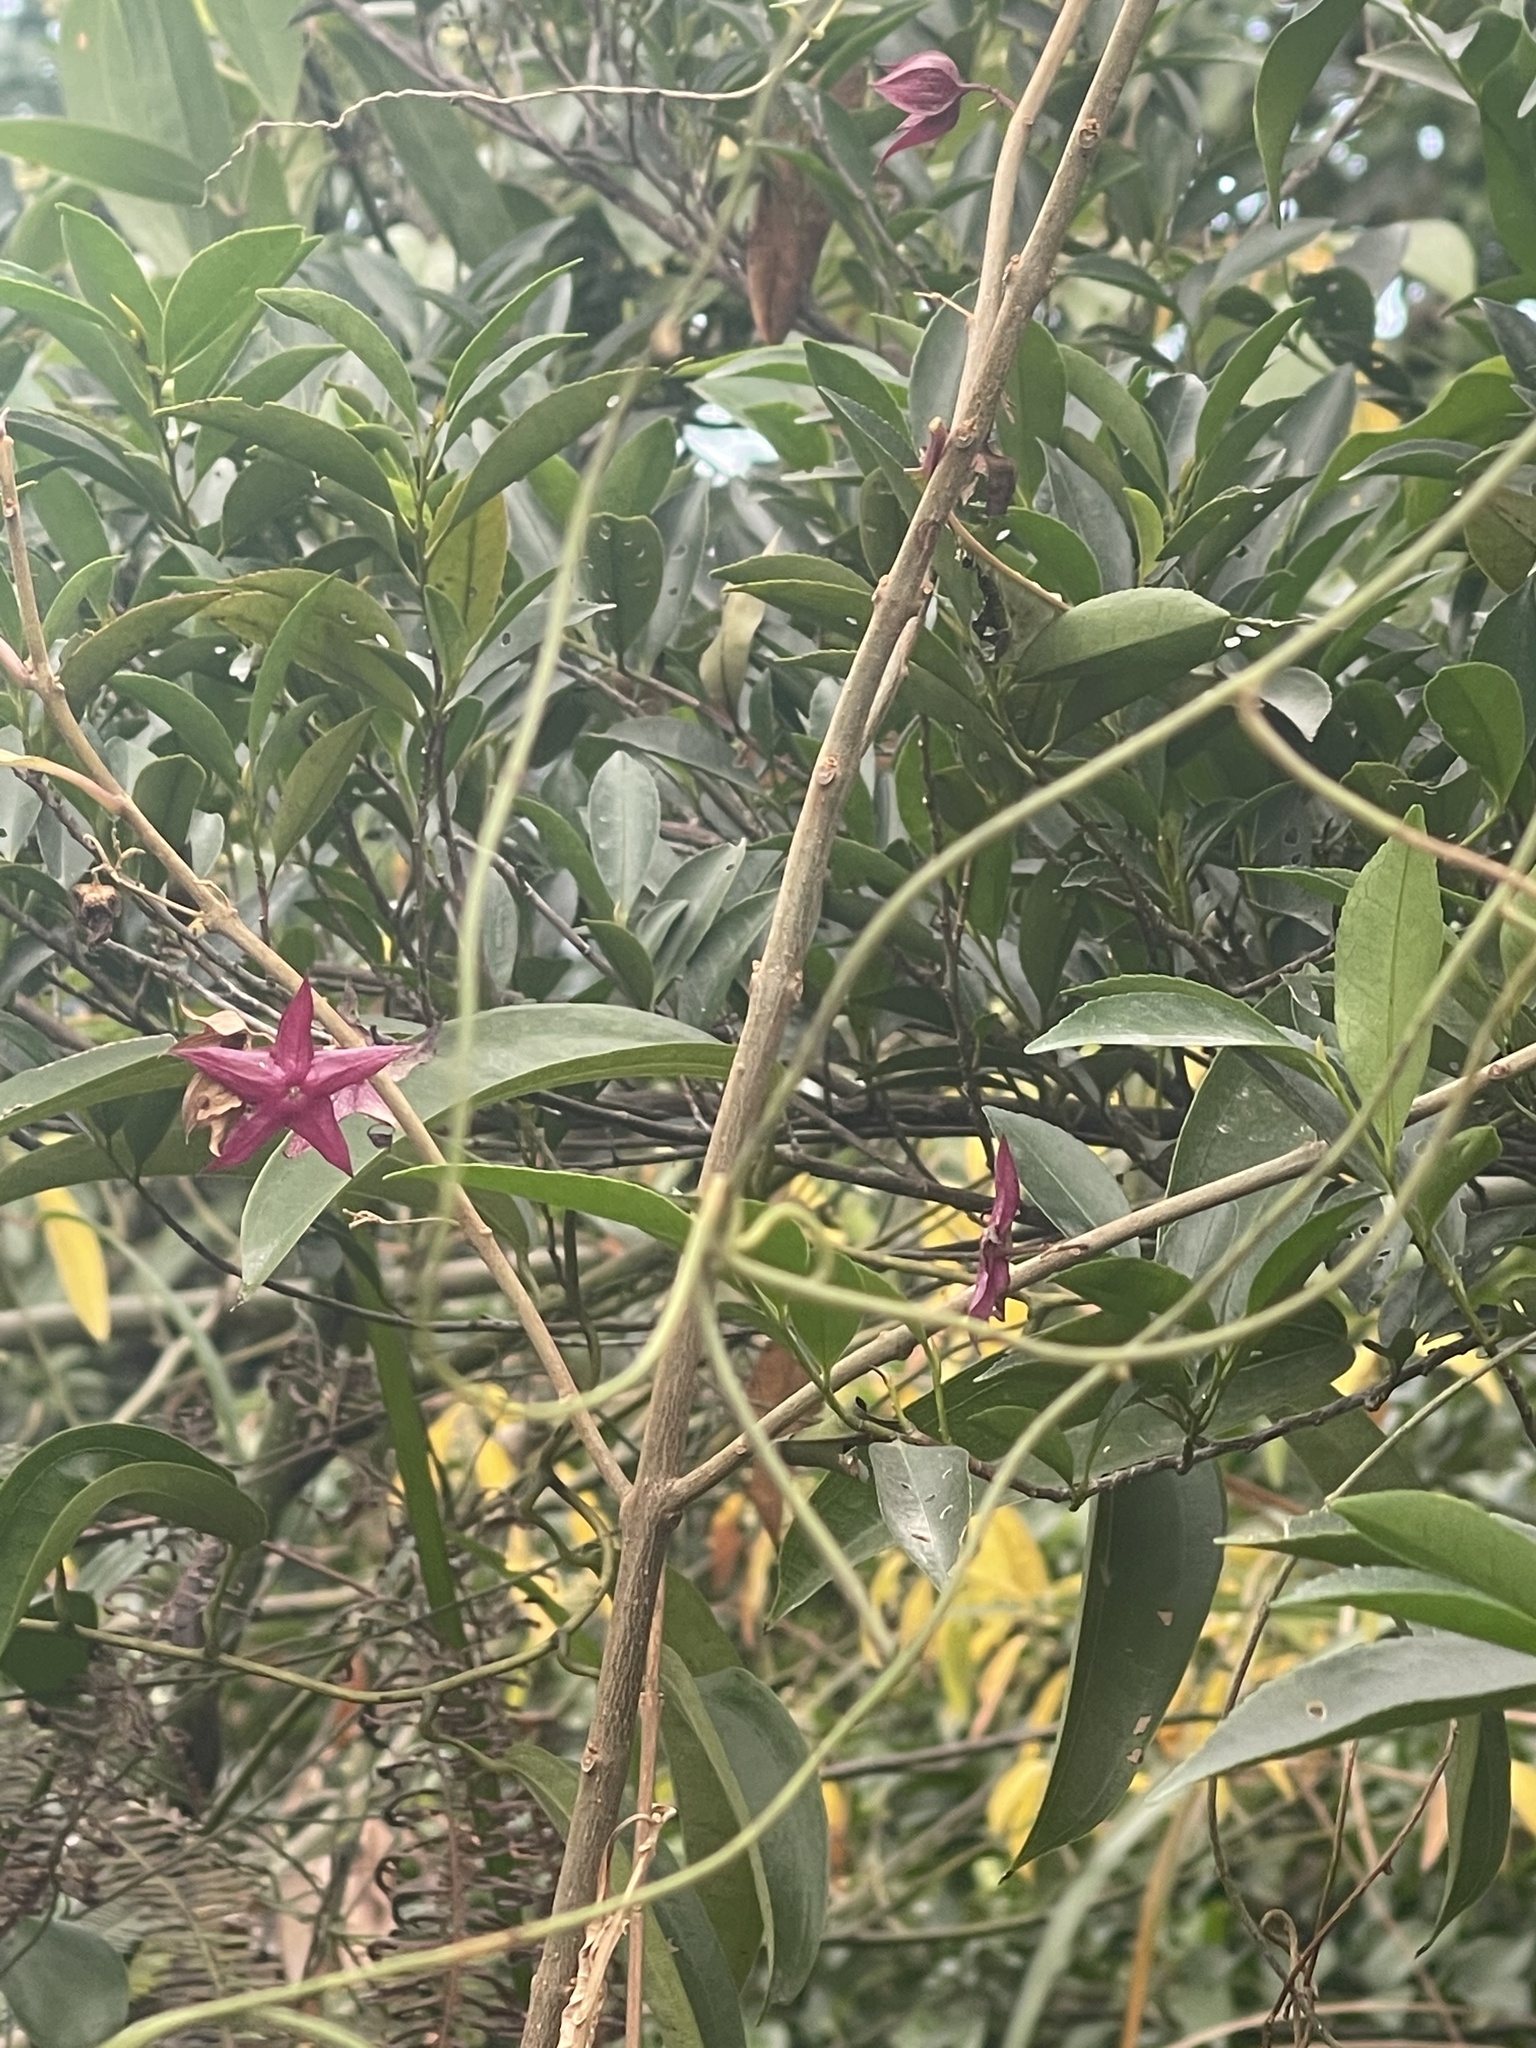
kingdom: Plantae
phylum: Tracheophyta
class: Magnoliopsida
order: Lamiales
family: Lamiaceae
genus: Clerodendrum
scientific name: Clerodendrum fortunatum
